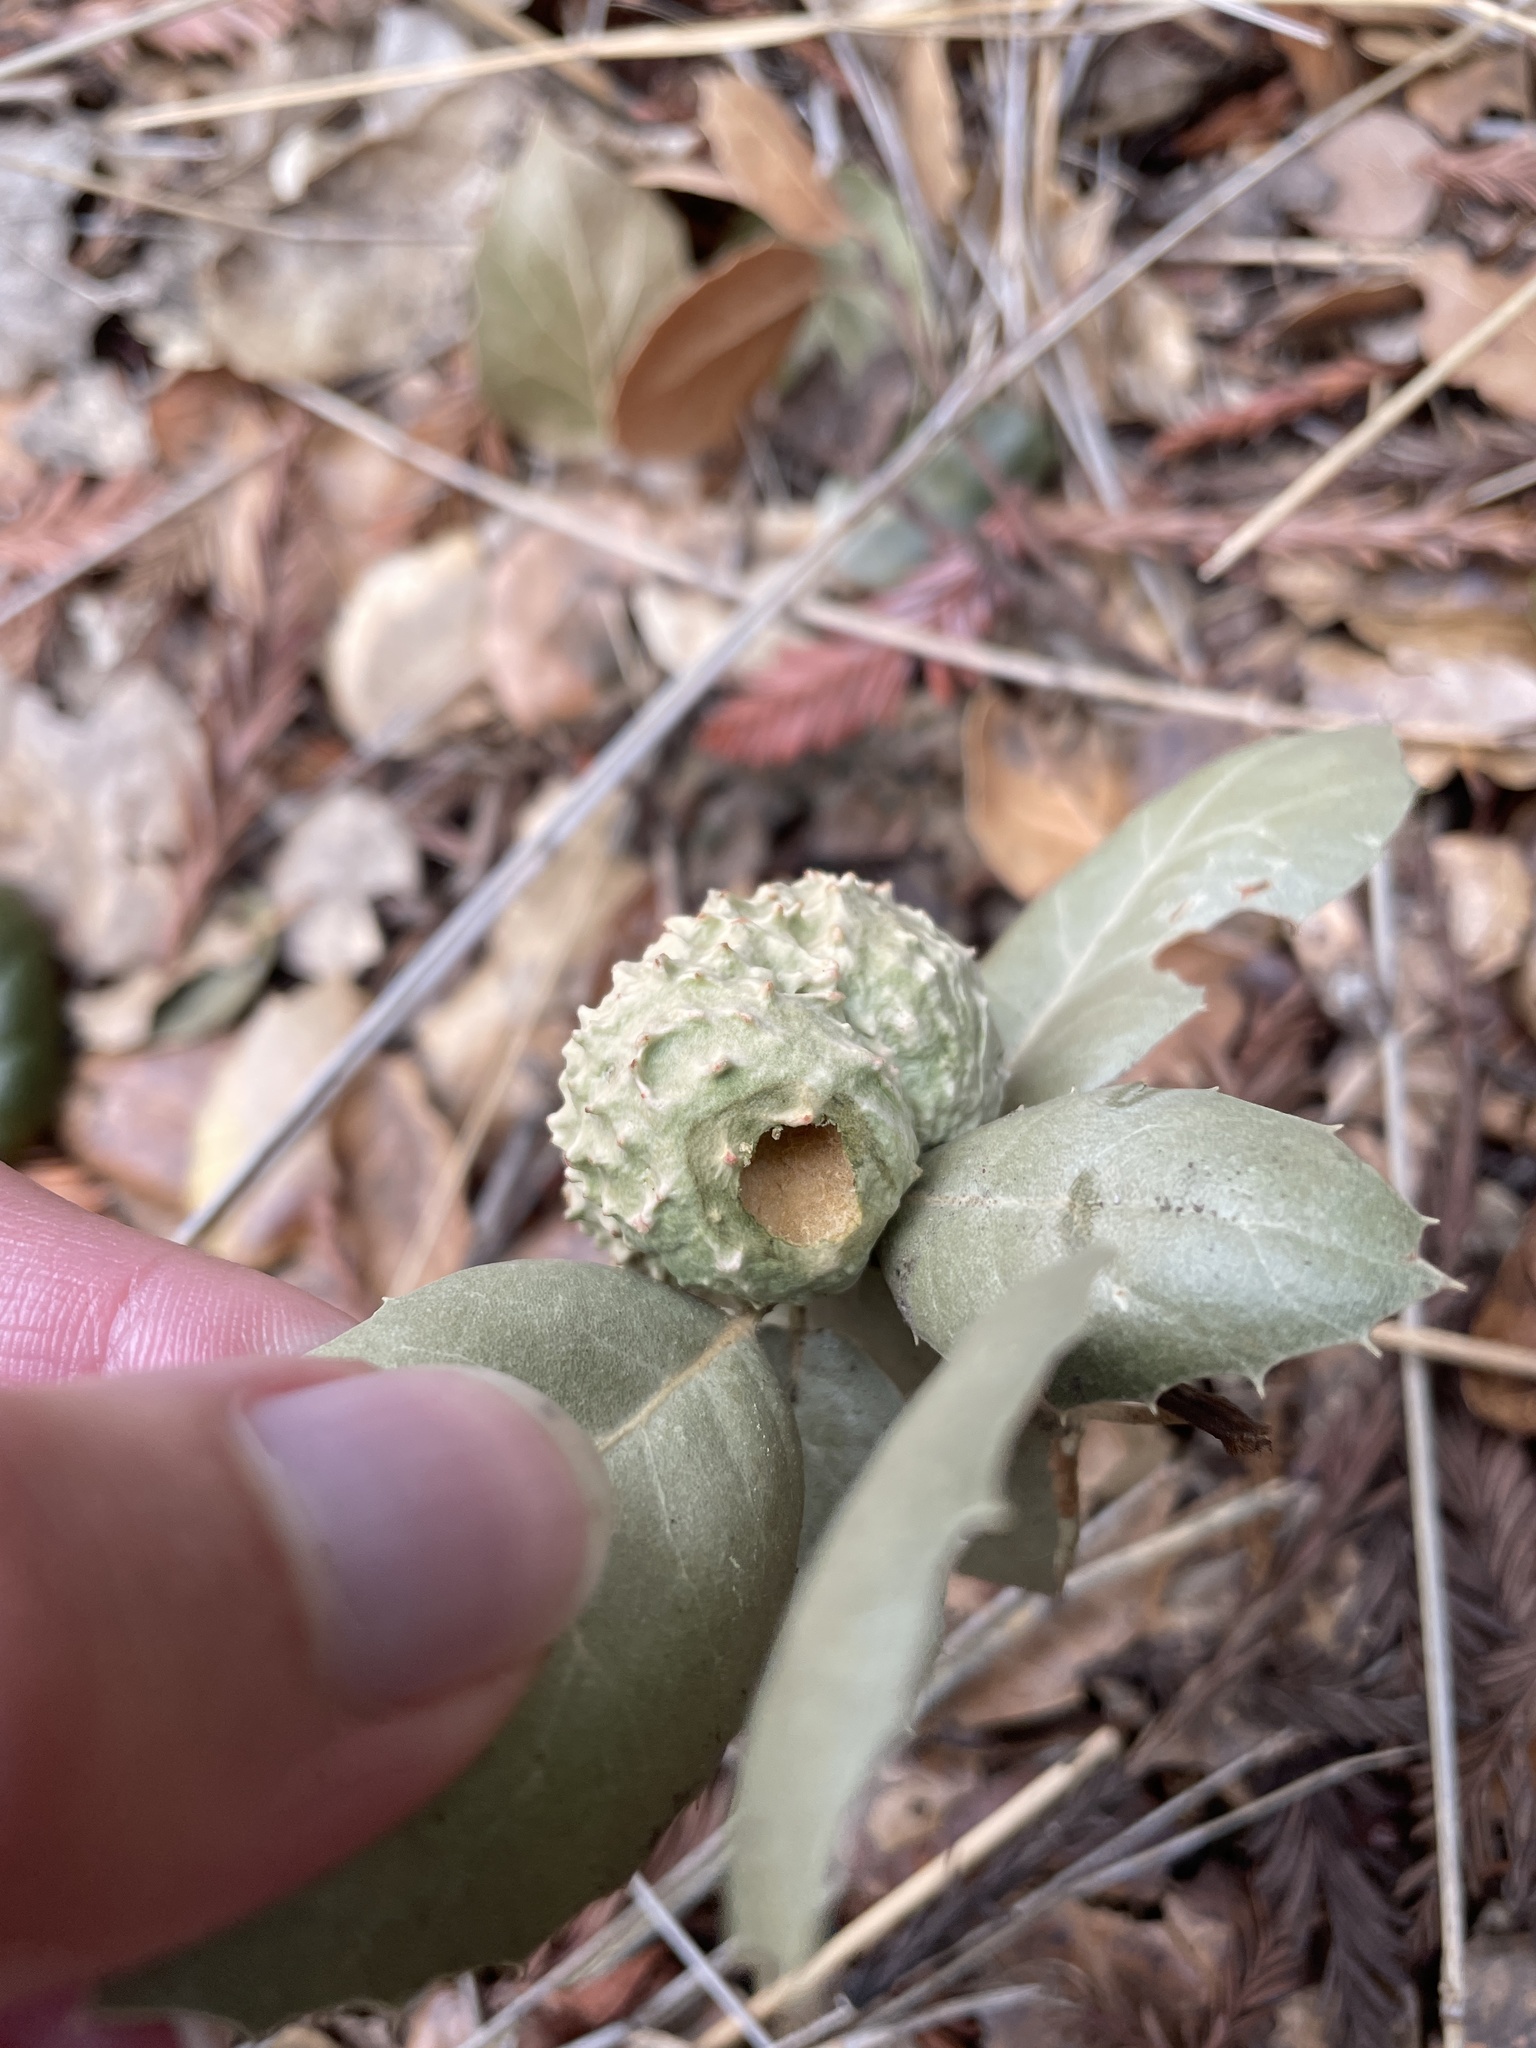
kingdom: Animalia
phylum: Arthropoda
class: Insecta
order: Hymenoptera
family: Cynipidae
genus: Amphibolips
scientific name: Amphibolips quercuspomiformis
